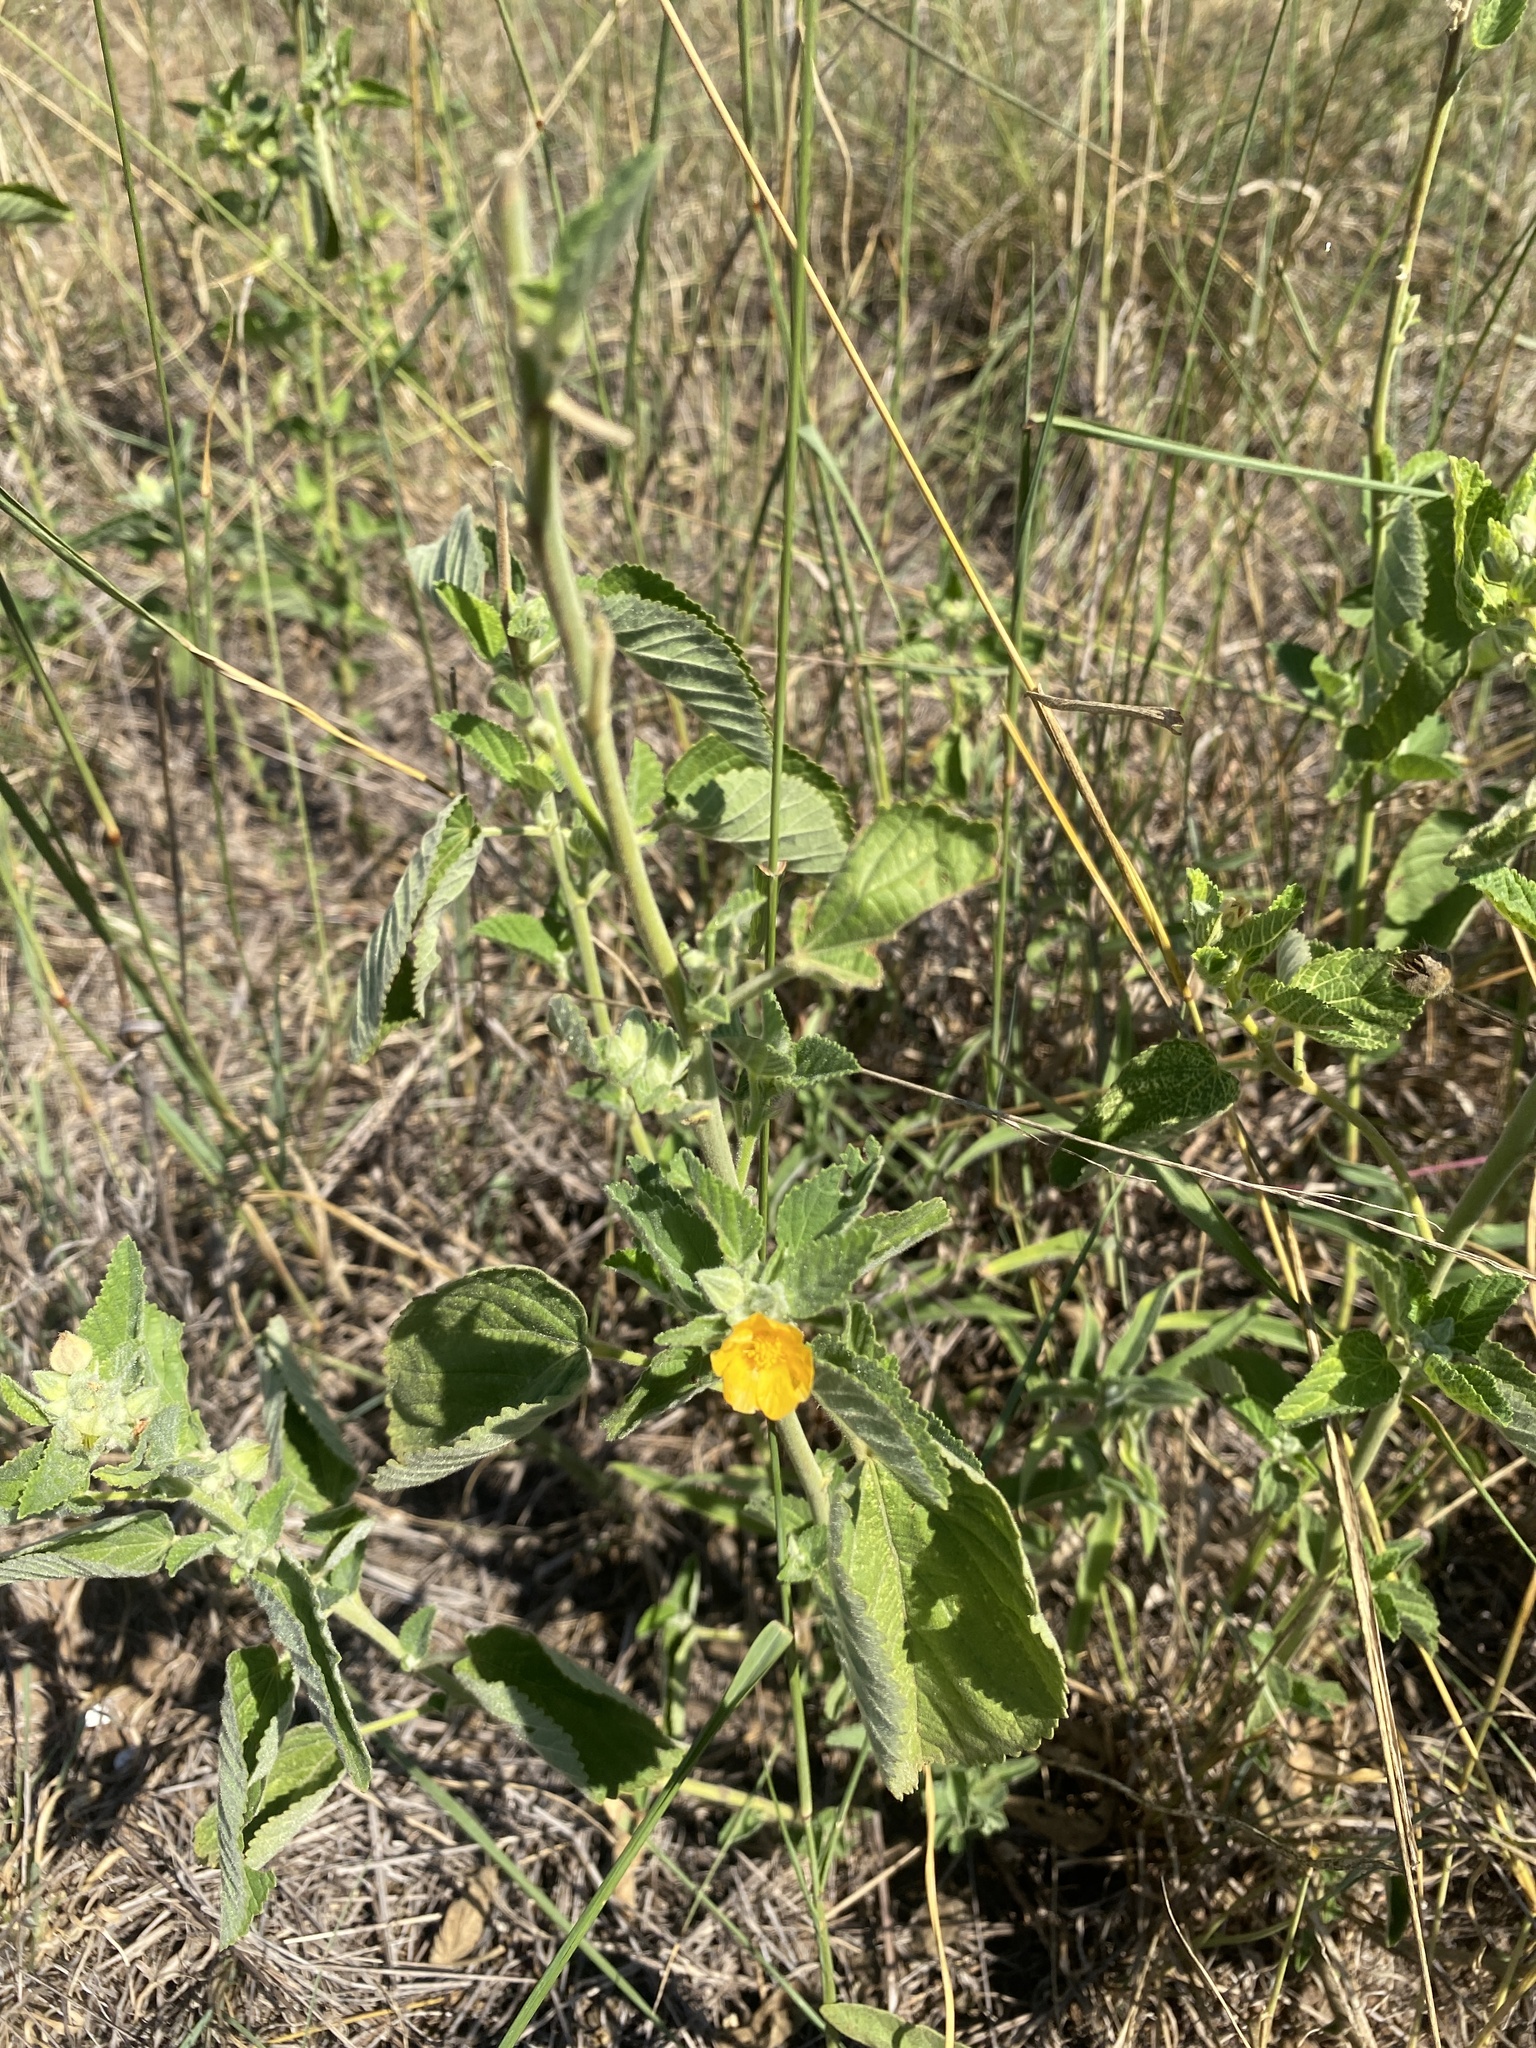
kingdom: Plantae
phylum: Tracheophyta
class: Magnoliopsida
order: Malvales
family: Malvaceae
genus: Sida
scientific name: Sida cordifolia
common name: Ilima
